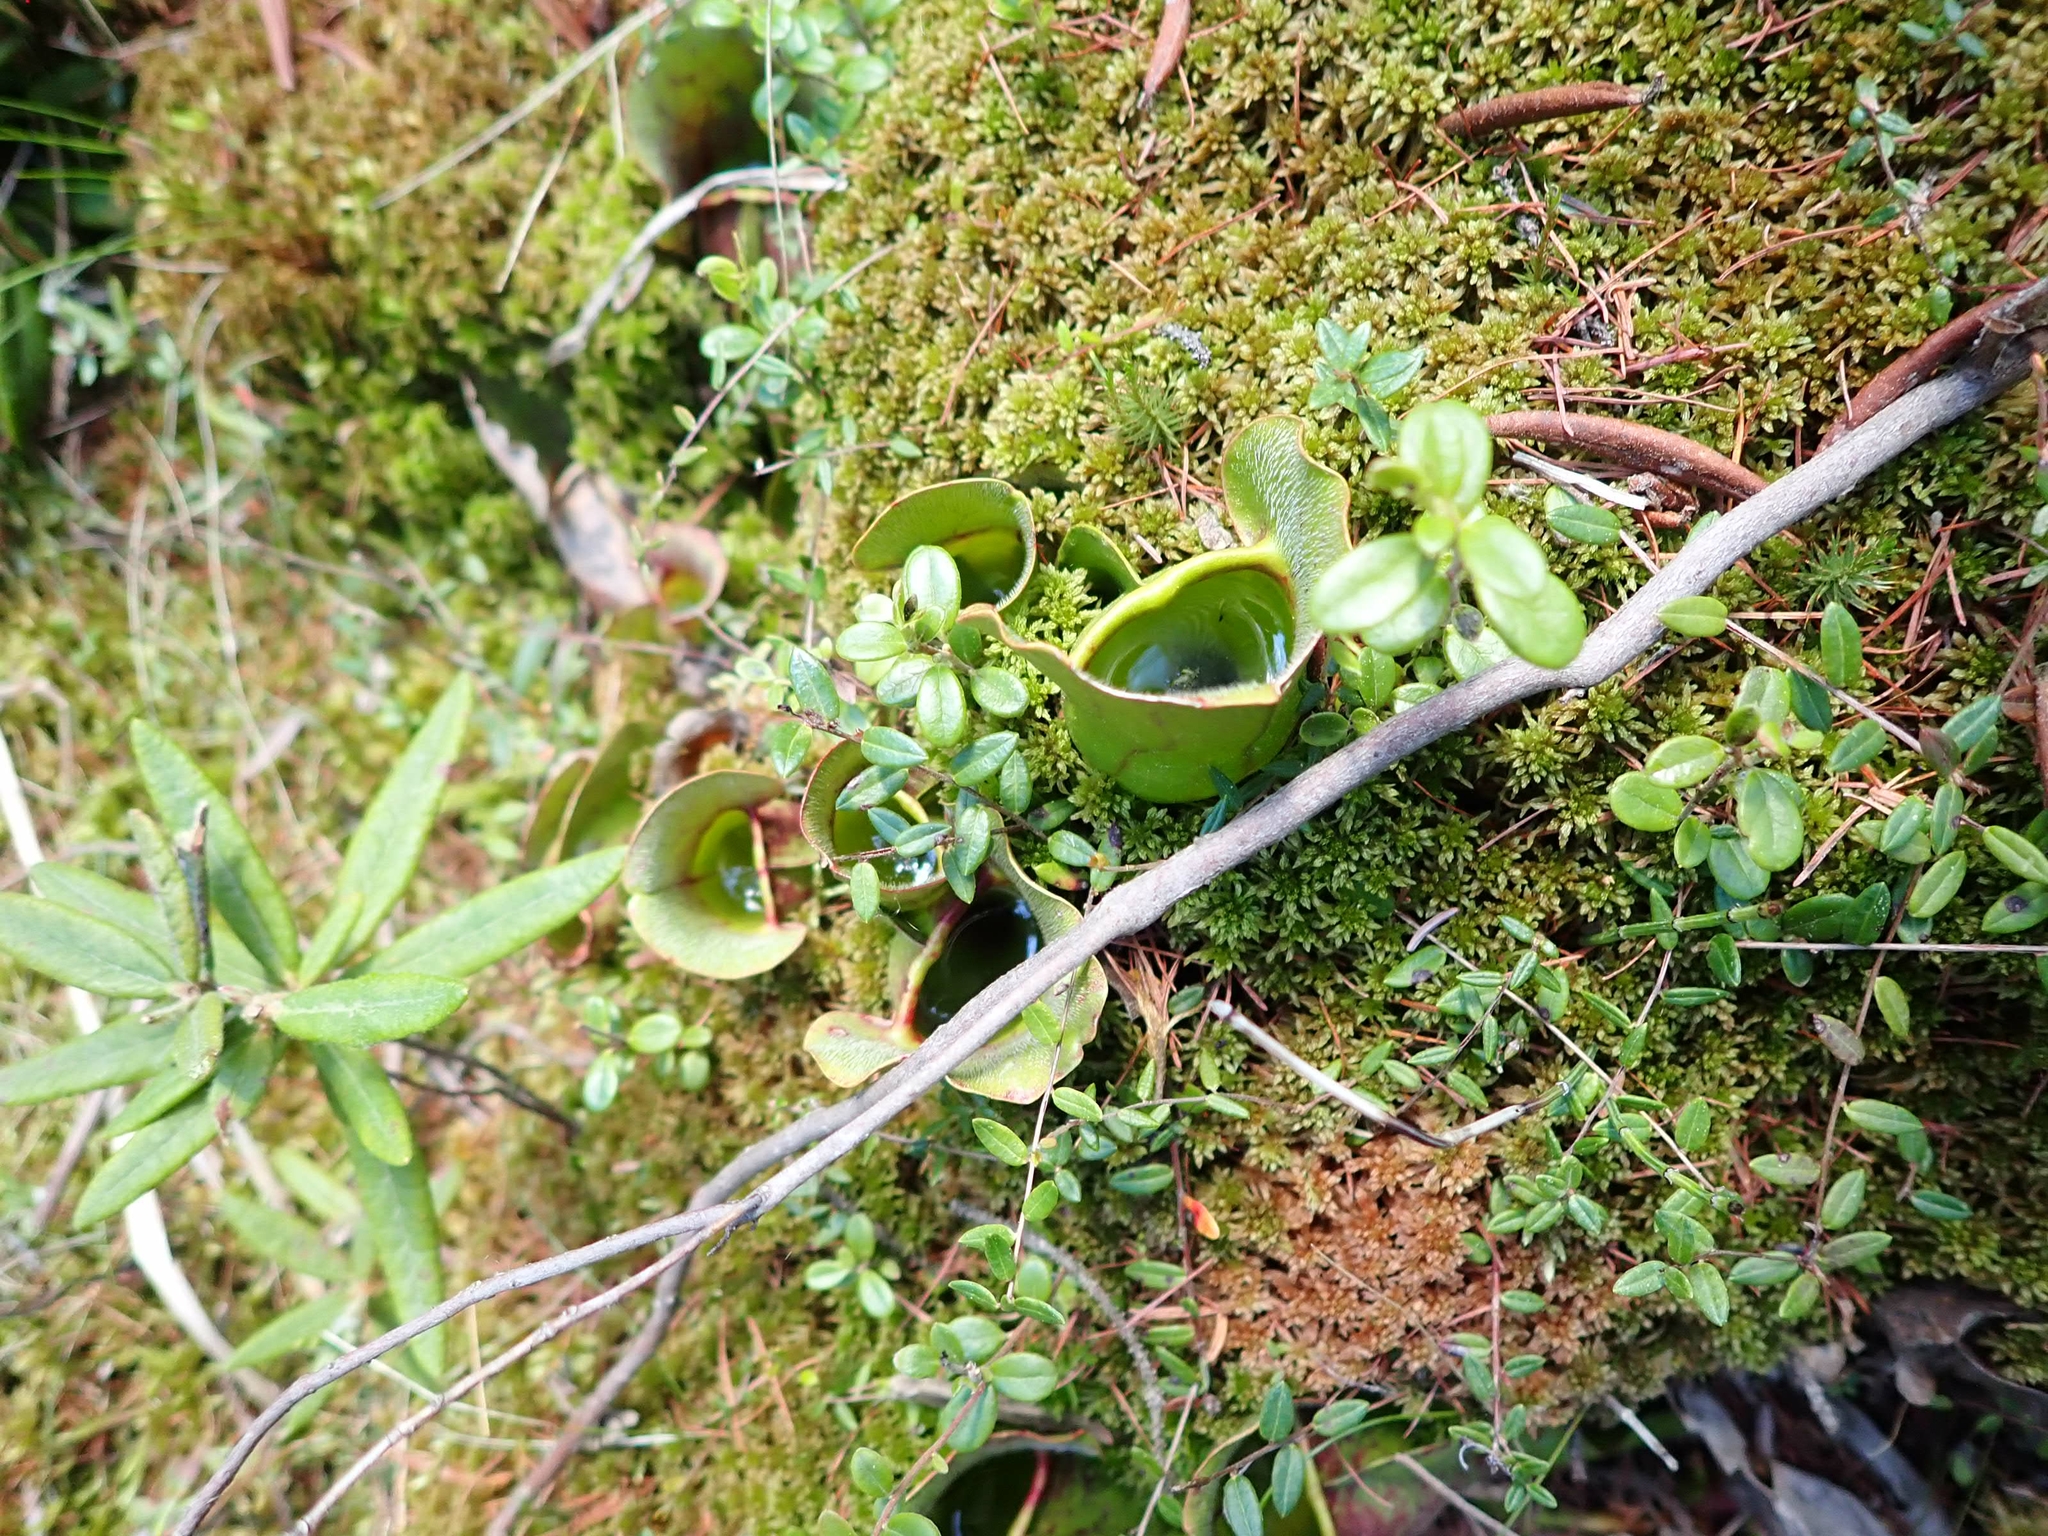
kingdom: Plantae
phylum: Tracheophyta
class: Magnoliopsida
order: Ericales
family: Sarraceniaceae
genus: Sarracenia
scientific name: Sarracenia purpurea
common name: Pitcherplant
